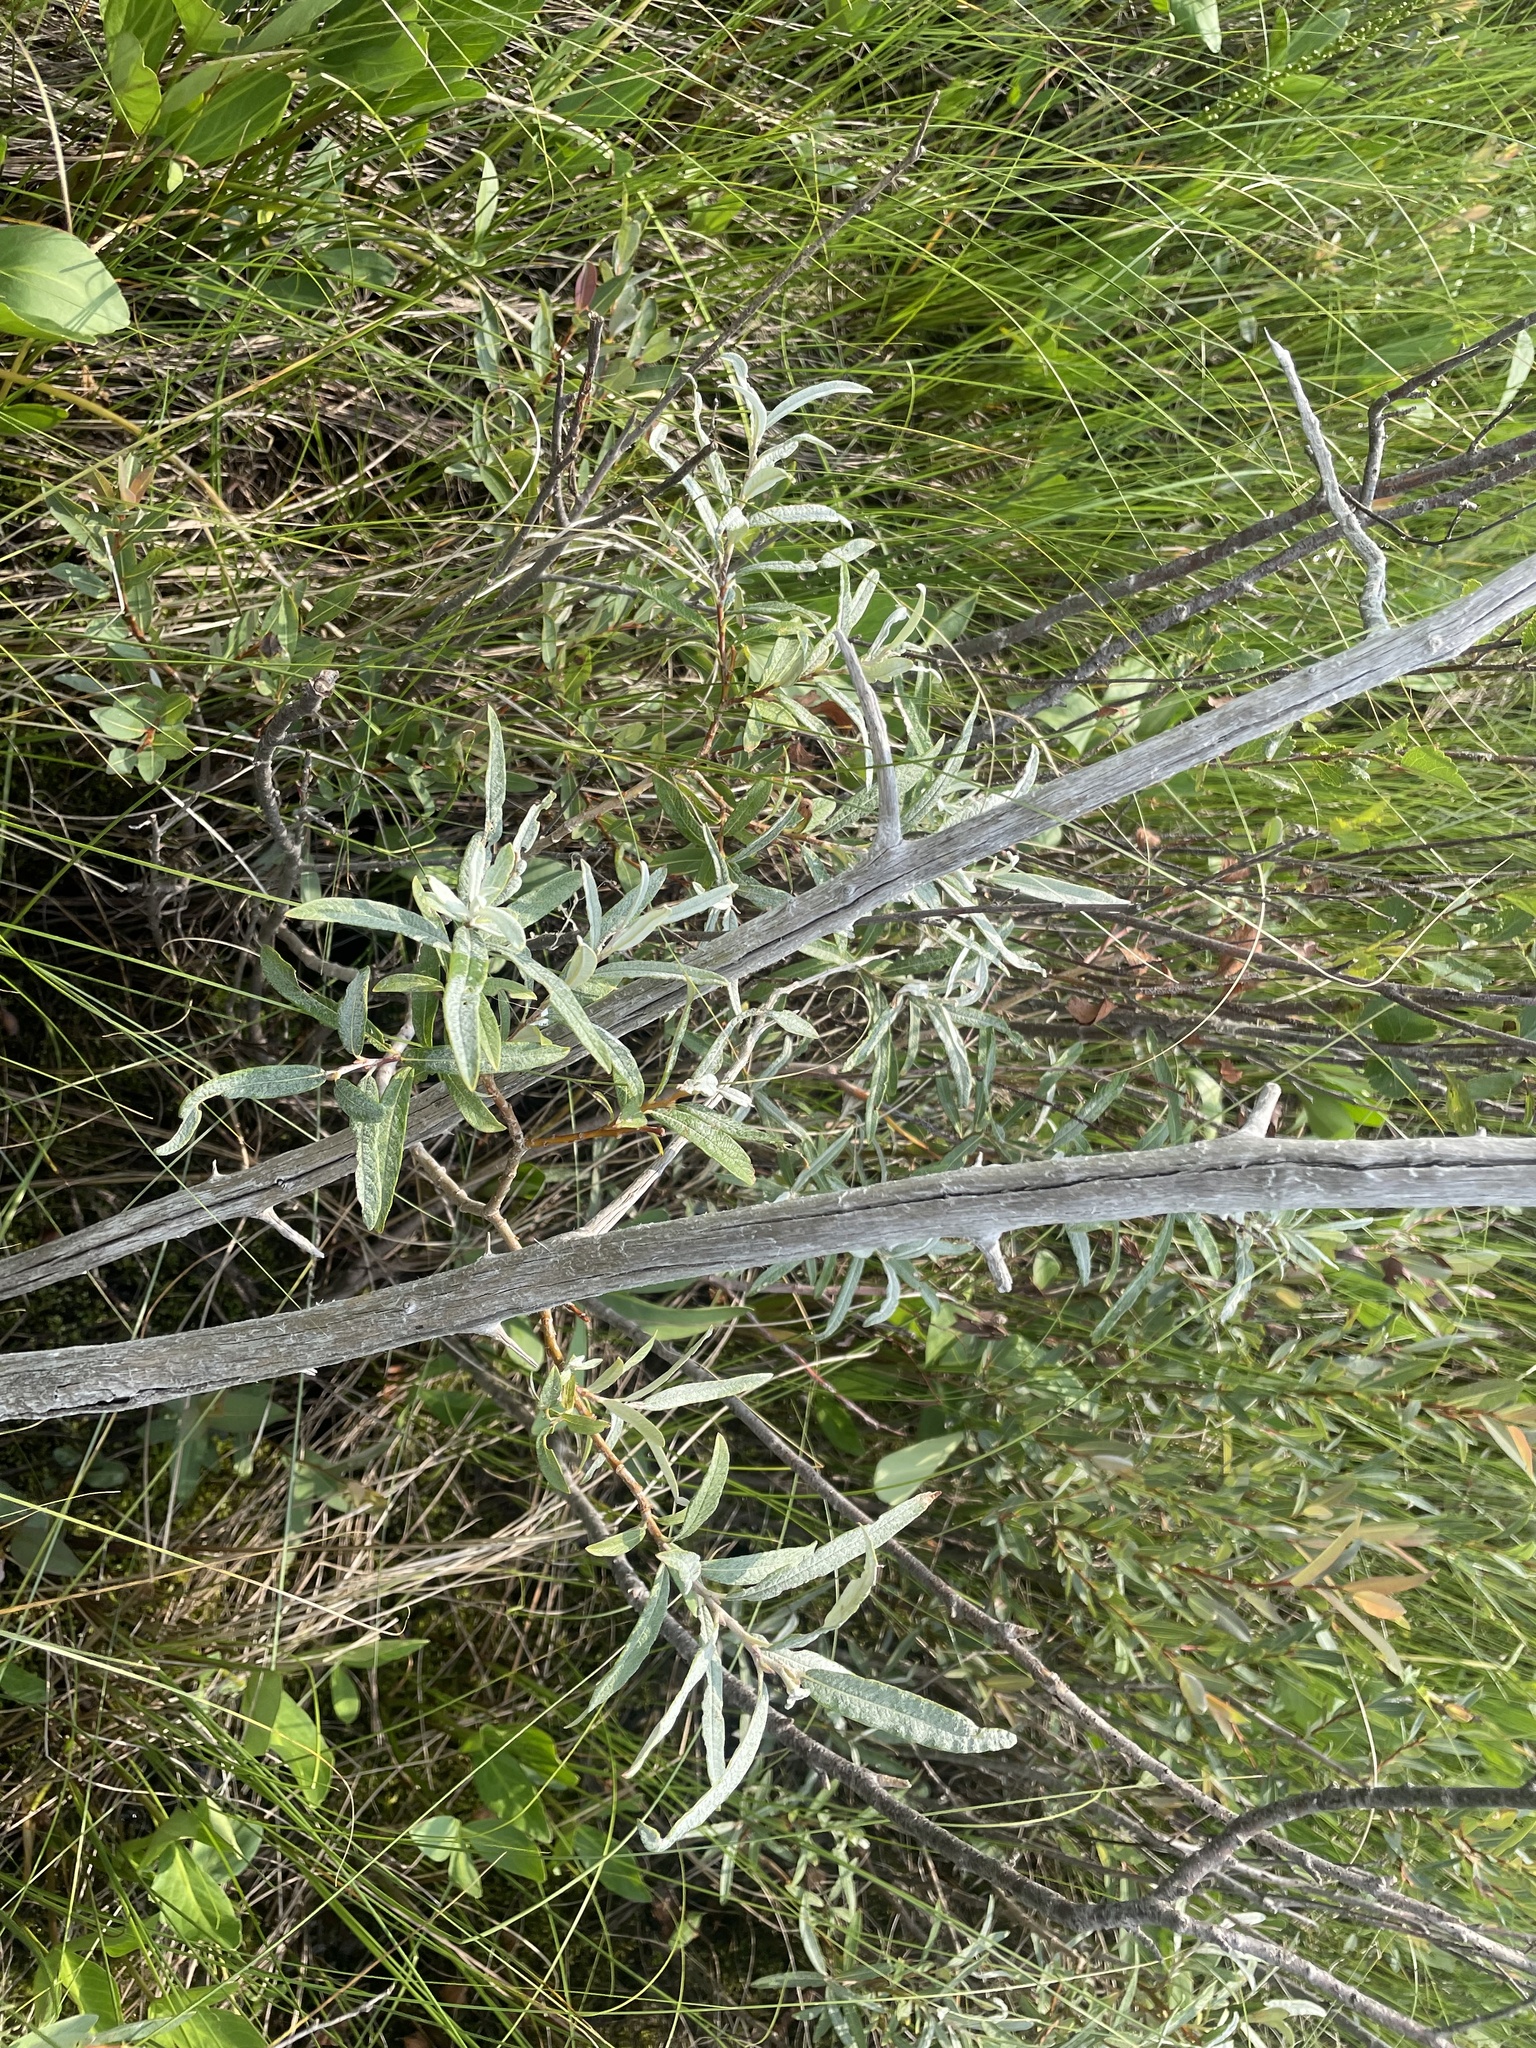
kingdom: Plantae
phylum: Tracheophyta
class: Magnoliopsida
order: Malpighiales
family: Salicaceae
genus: Salix
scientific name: Salix candida
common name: Hoary willow
